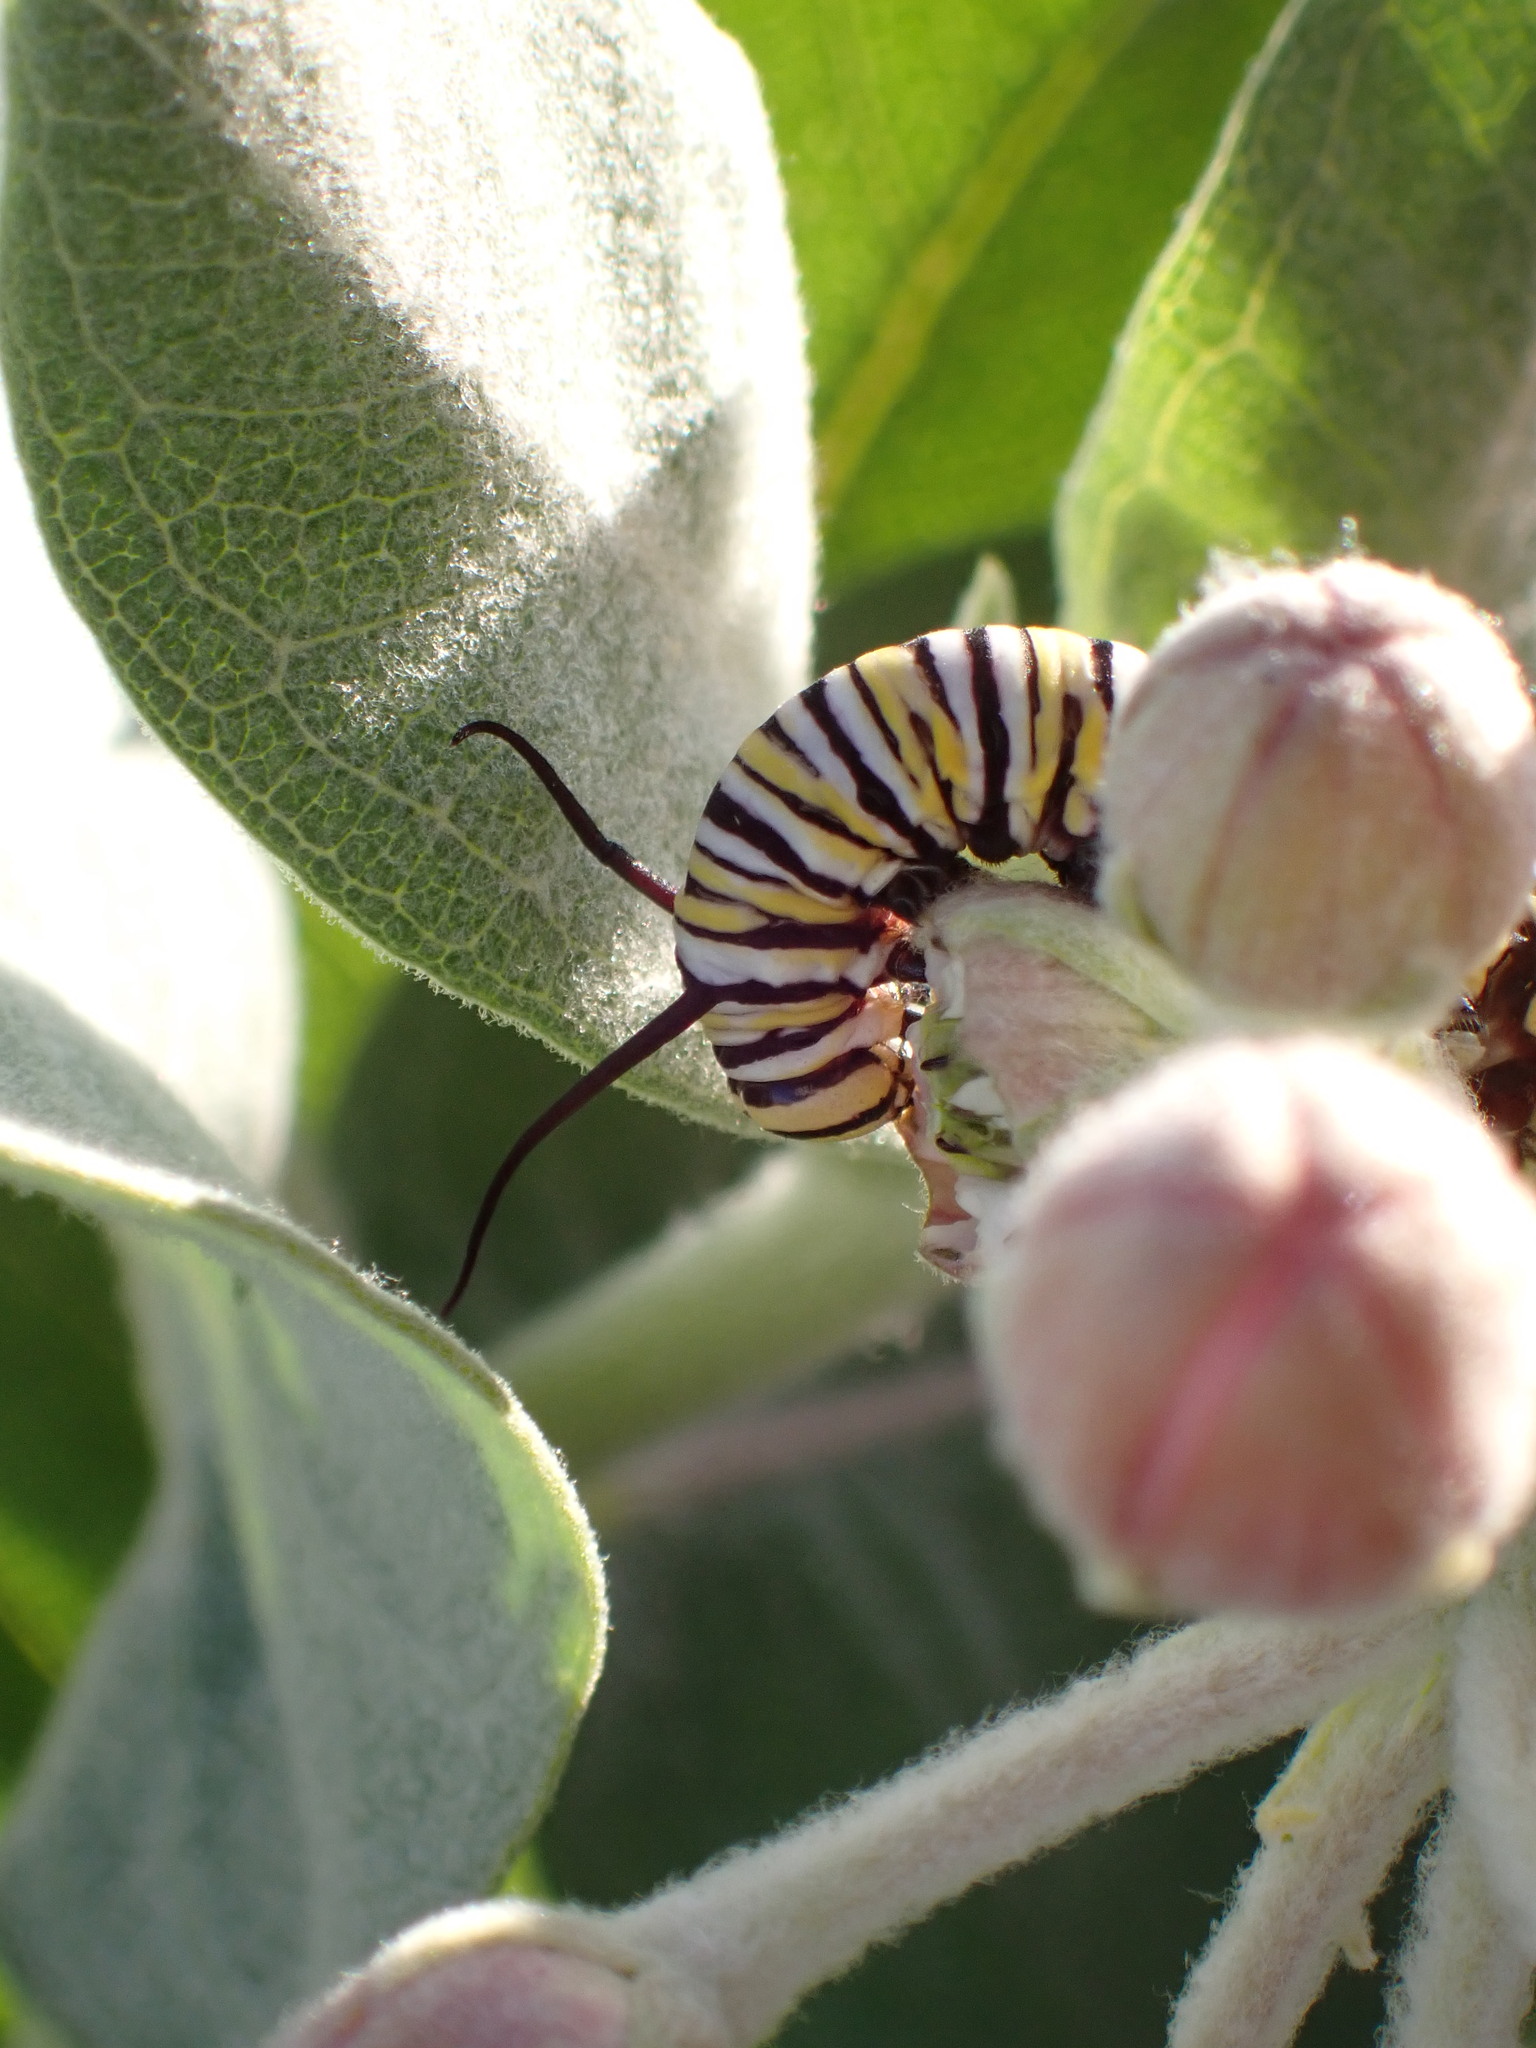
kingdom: Animalia
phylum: Arthropoda
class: Insecta
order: Lepidoptera
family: Nymphalidae
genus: Danaus
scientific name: Danaus plexippus
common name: Monarch
